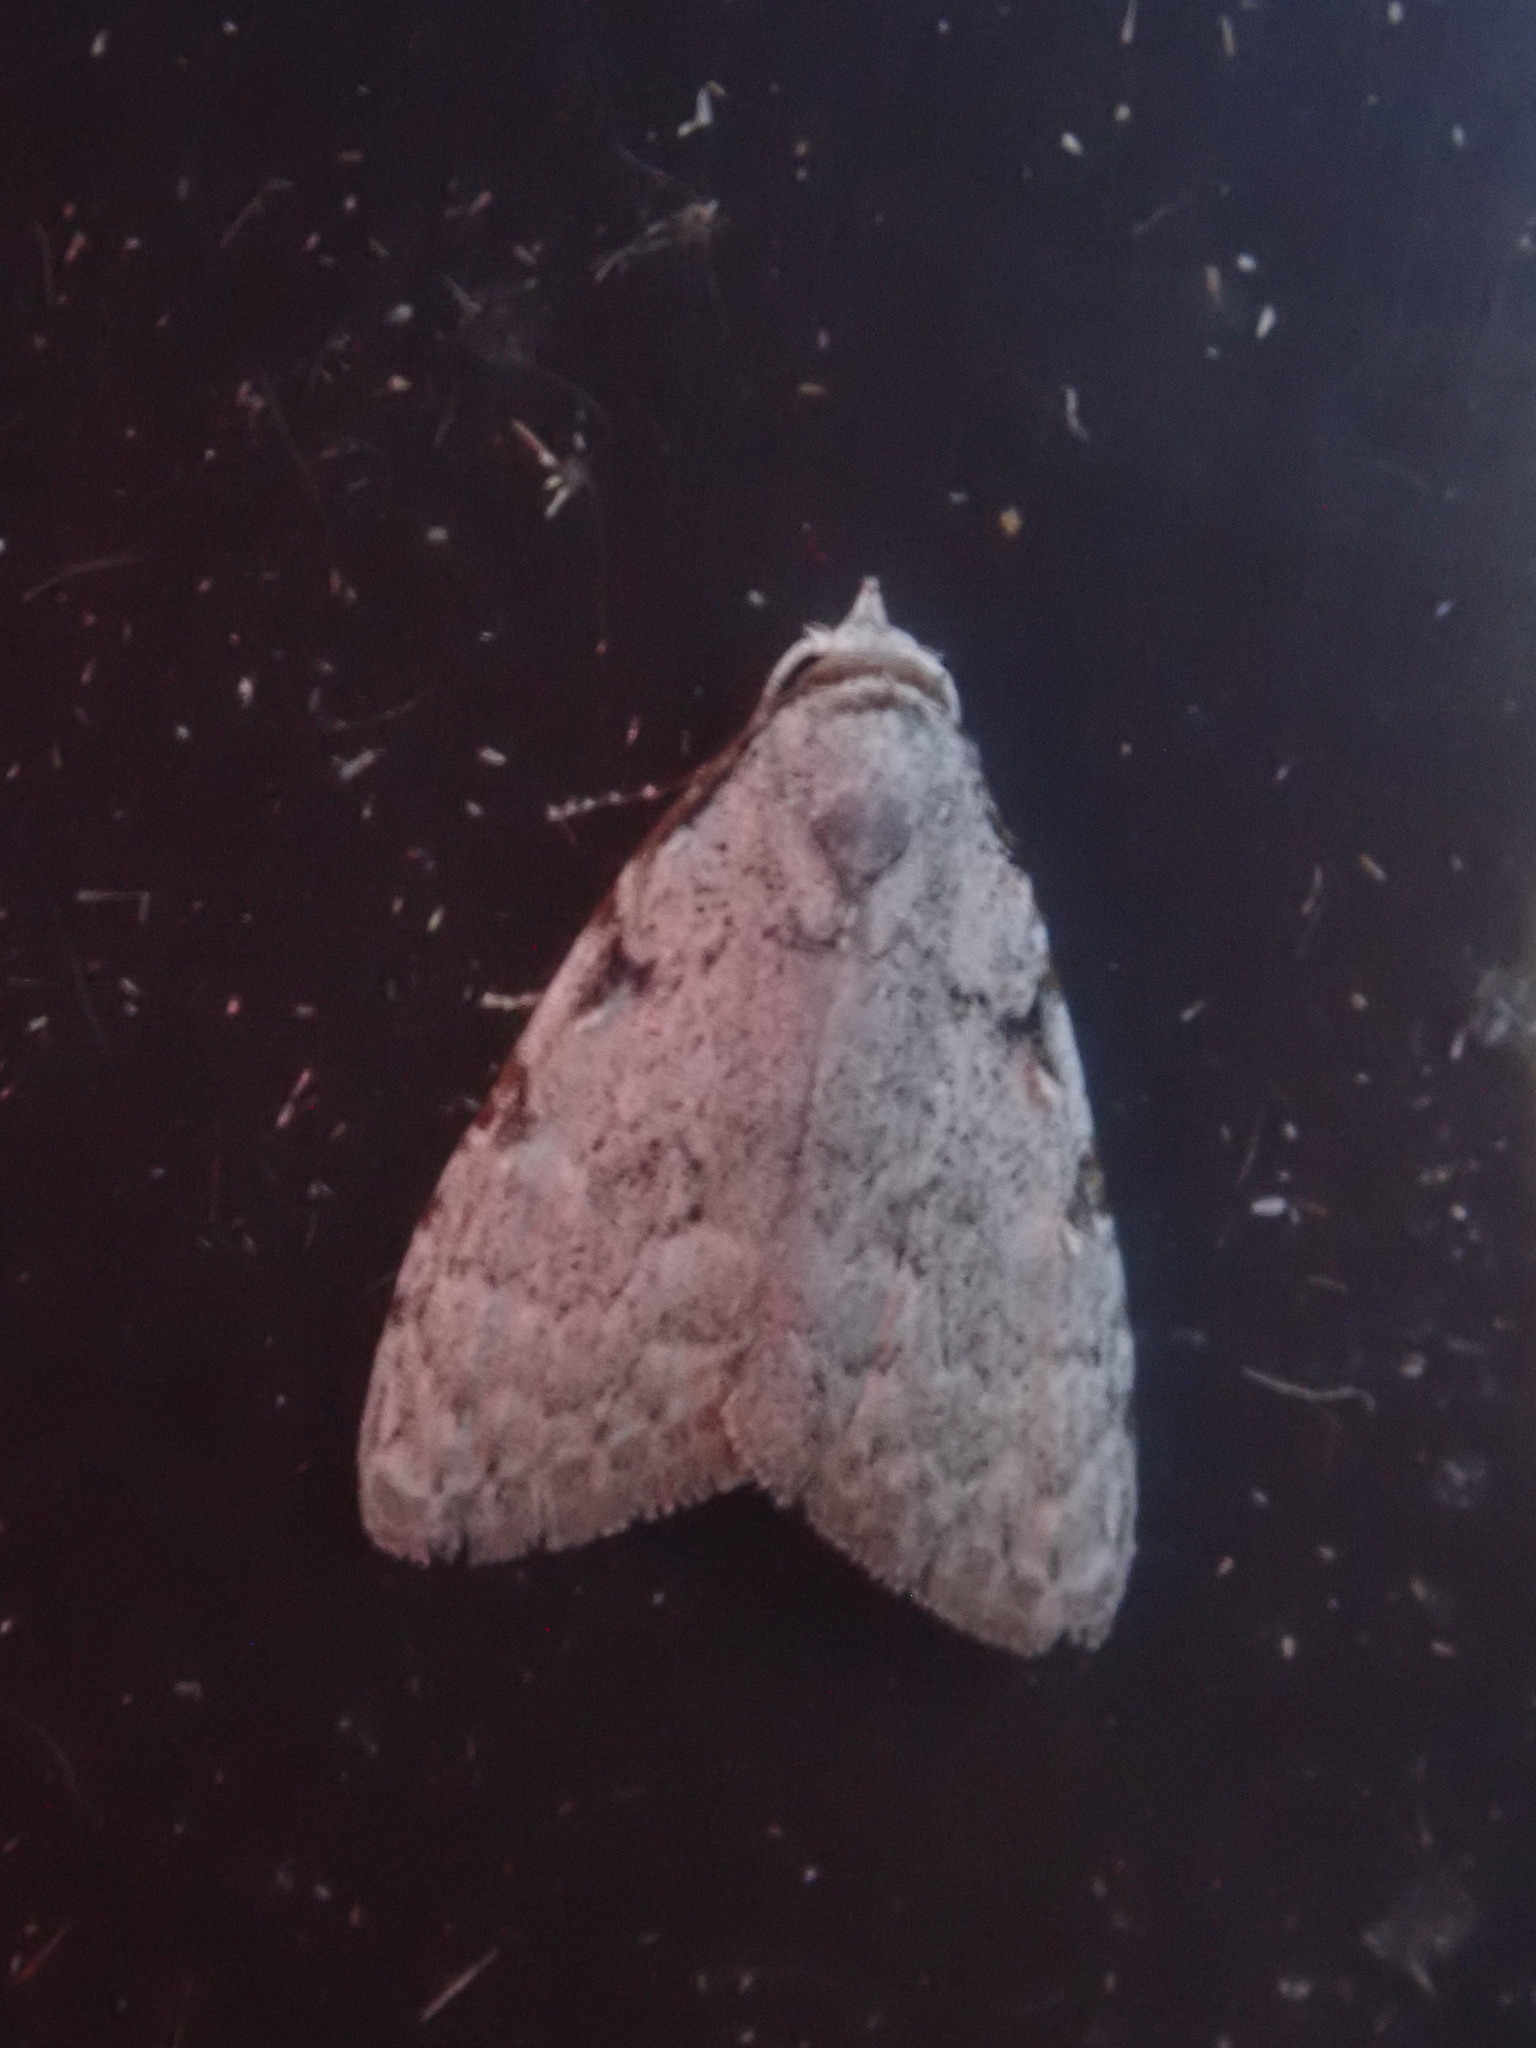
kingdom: Animalia
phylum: Arthropoda
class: Insecta
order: Lepidoptera
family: Nolidae
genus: Nola
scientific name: Nola triquetrana
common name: Three-spotted nola moth
